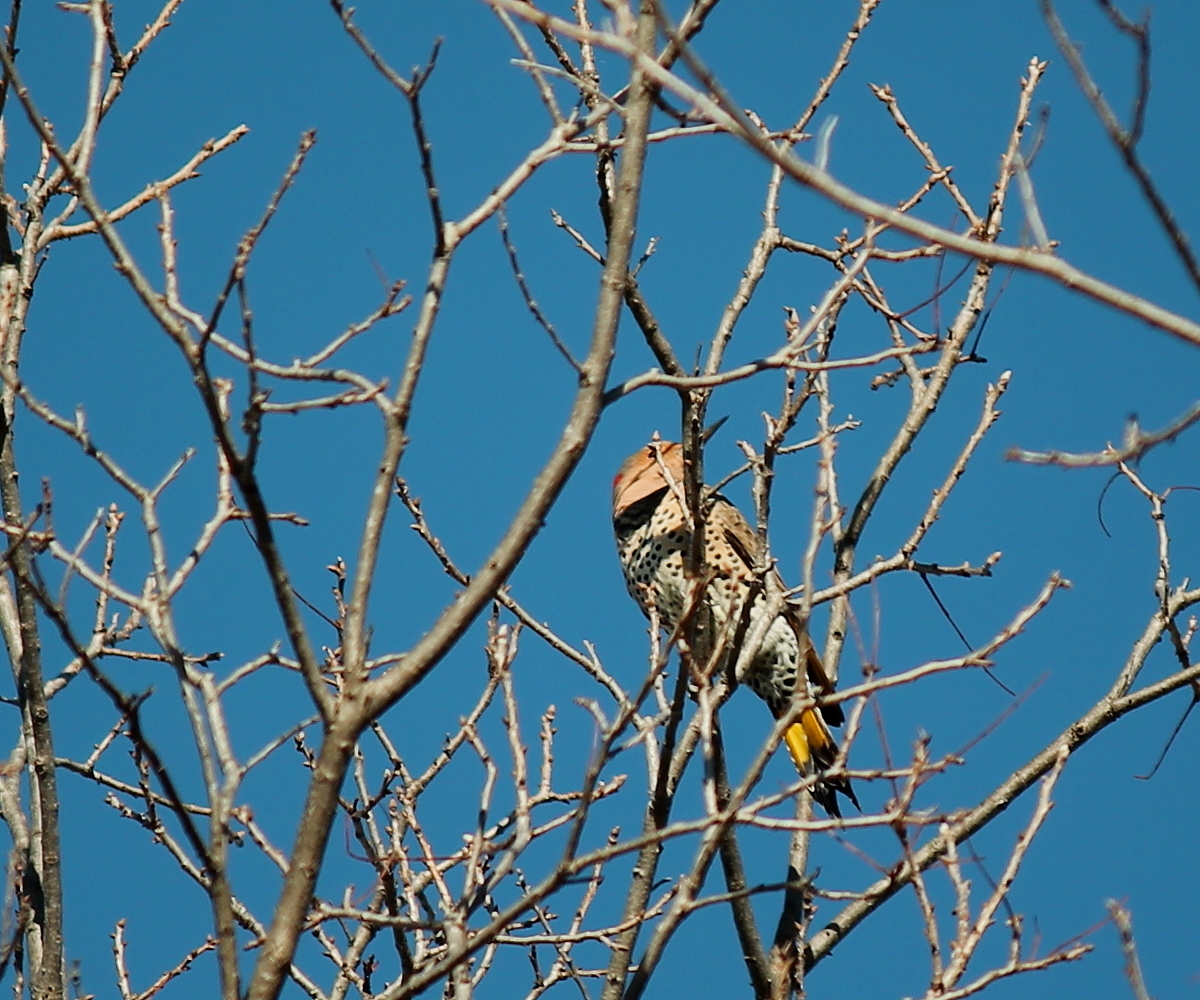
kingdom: Animalia
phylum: Chordata
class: Aves
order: Piciformes
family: Picidae
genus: Colaptes
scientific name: Colaptes auratus
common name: Northern flicker
